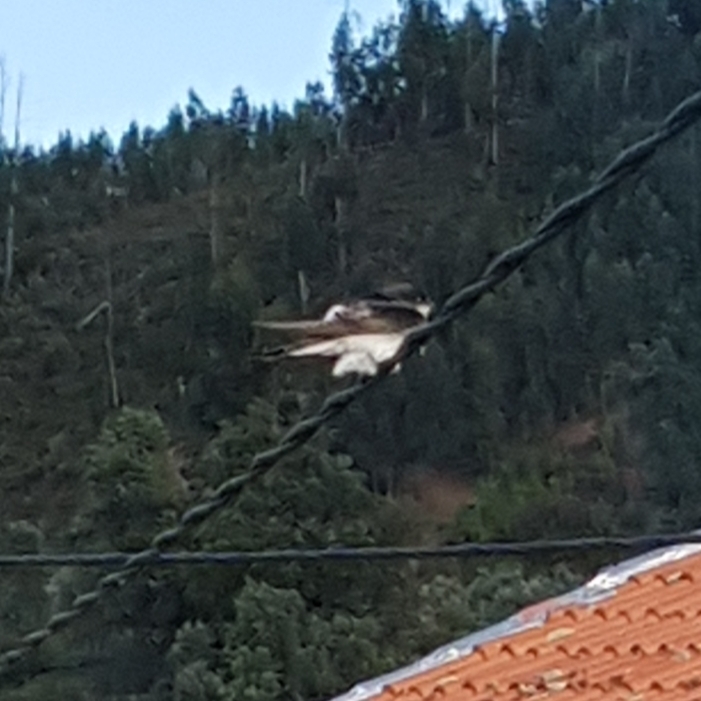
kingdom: Animalia
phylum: Chordata
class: Aves
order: Passeriformes
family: Hirundinidae
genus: Delichon
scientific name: Delichon urbicum
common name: Common house martin
